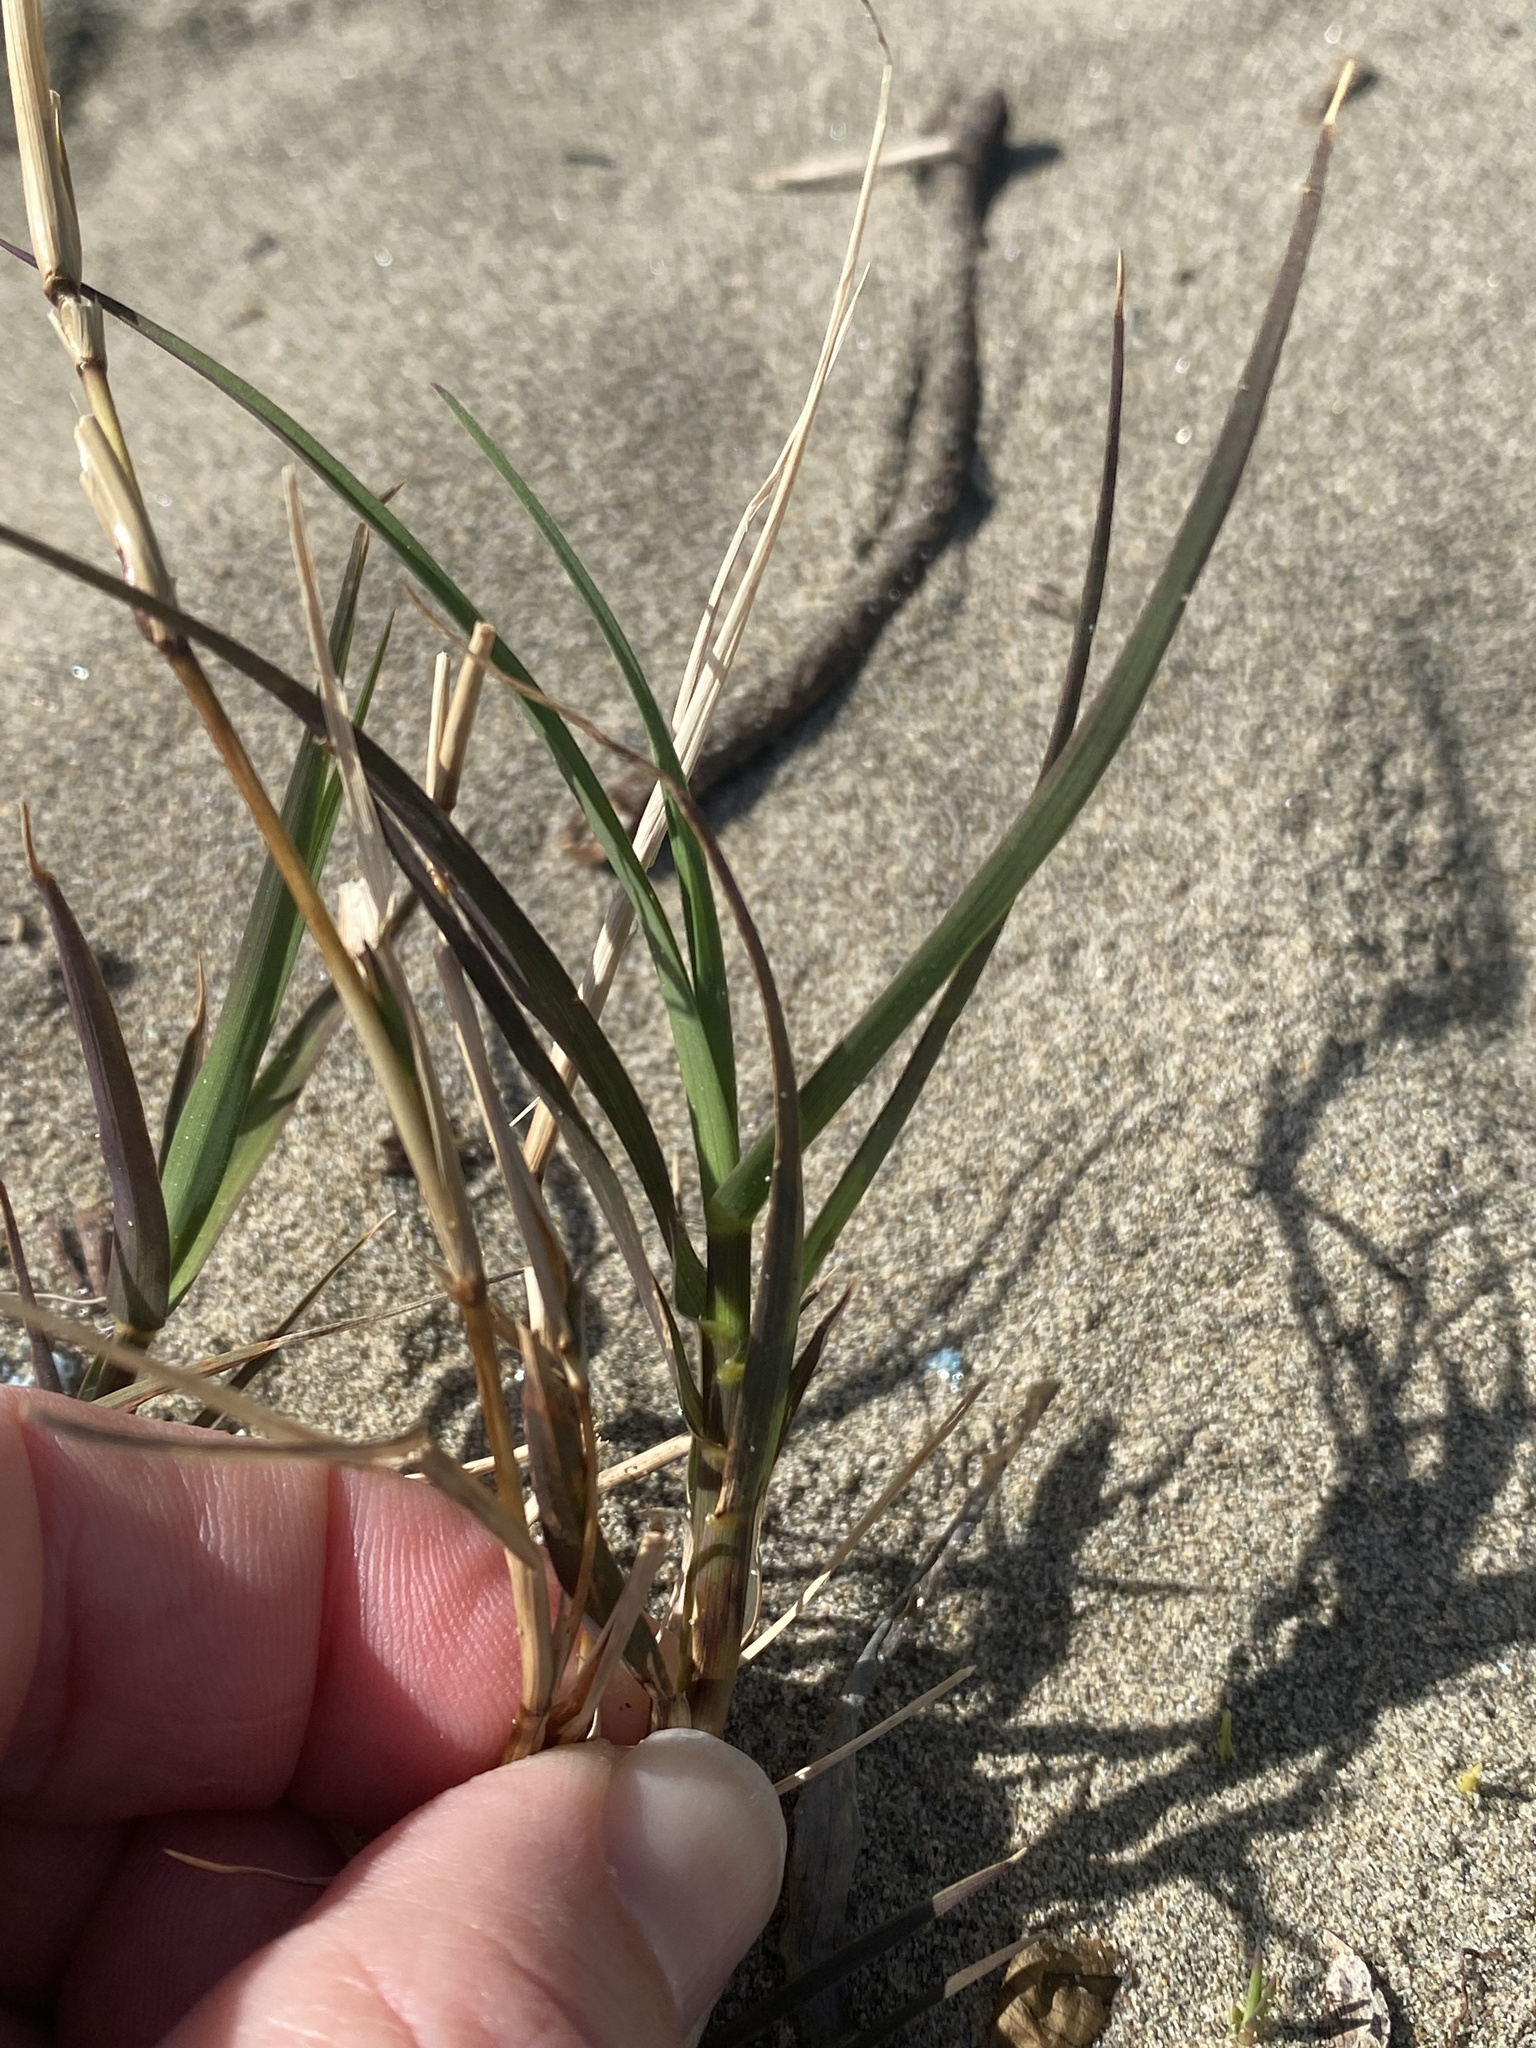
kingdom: Plantae
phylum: Tracheophyta
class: Liliopsida
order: Poales
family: Poaceae
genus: Distichlis
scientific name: Distichlis spicata
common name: Saltgrass
